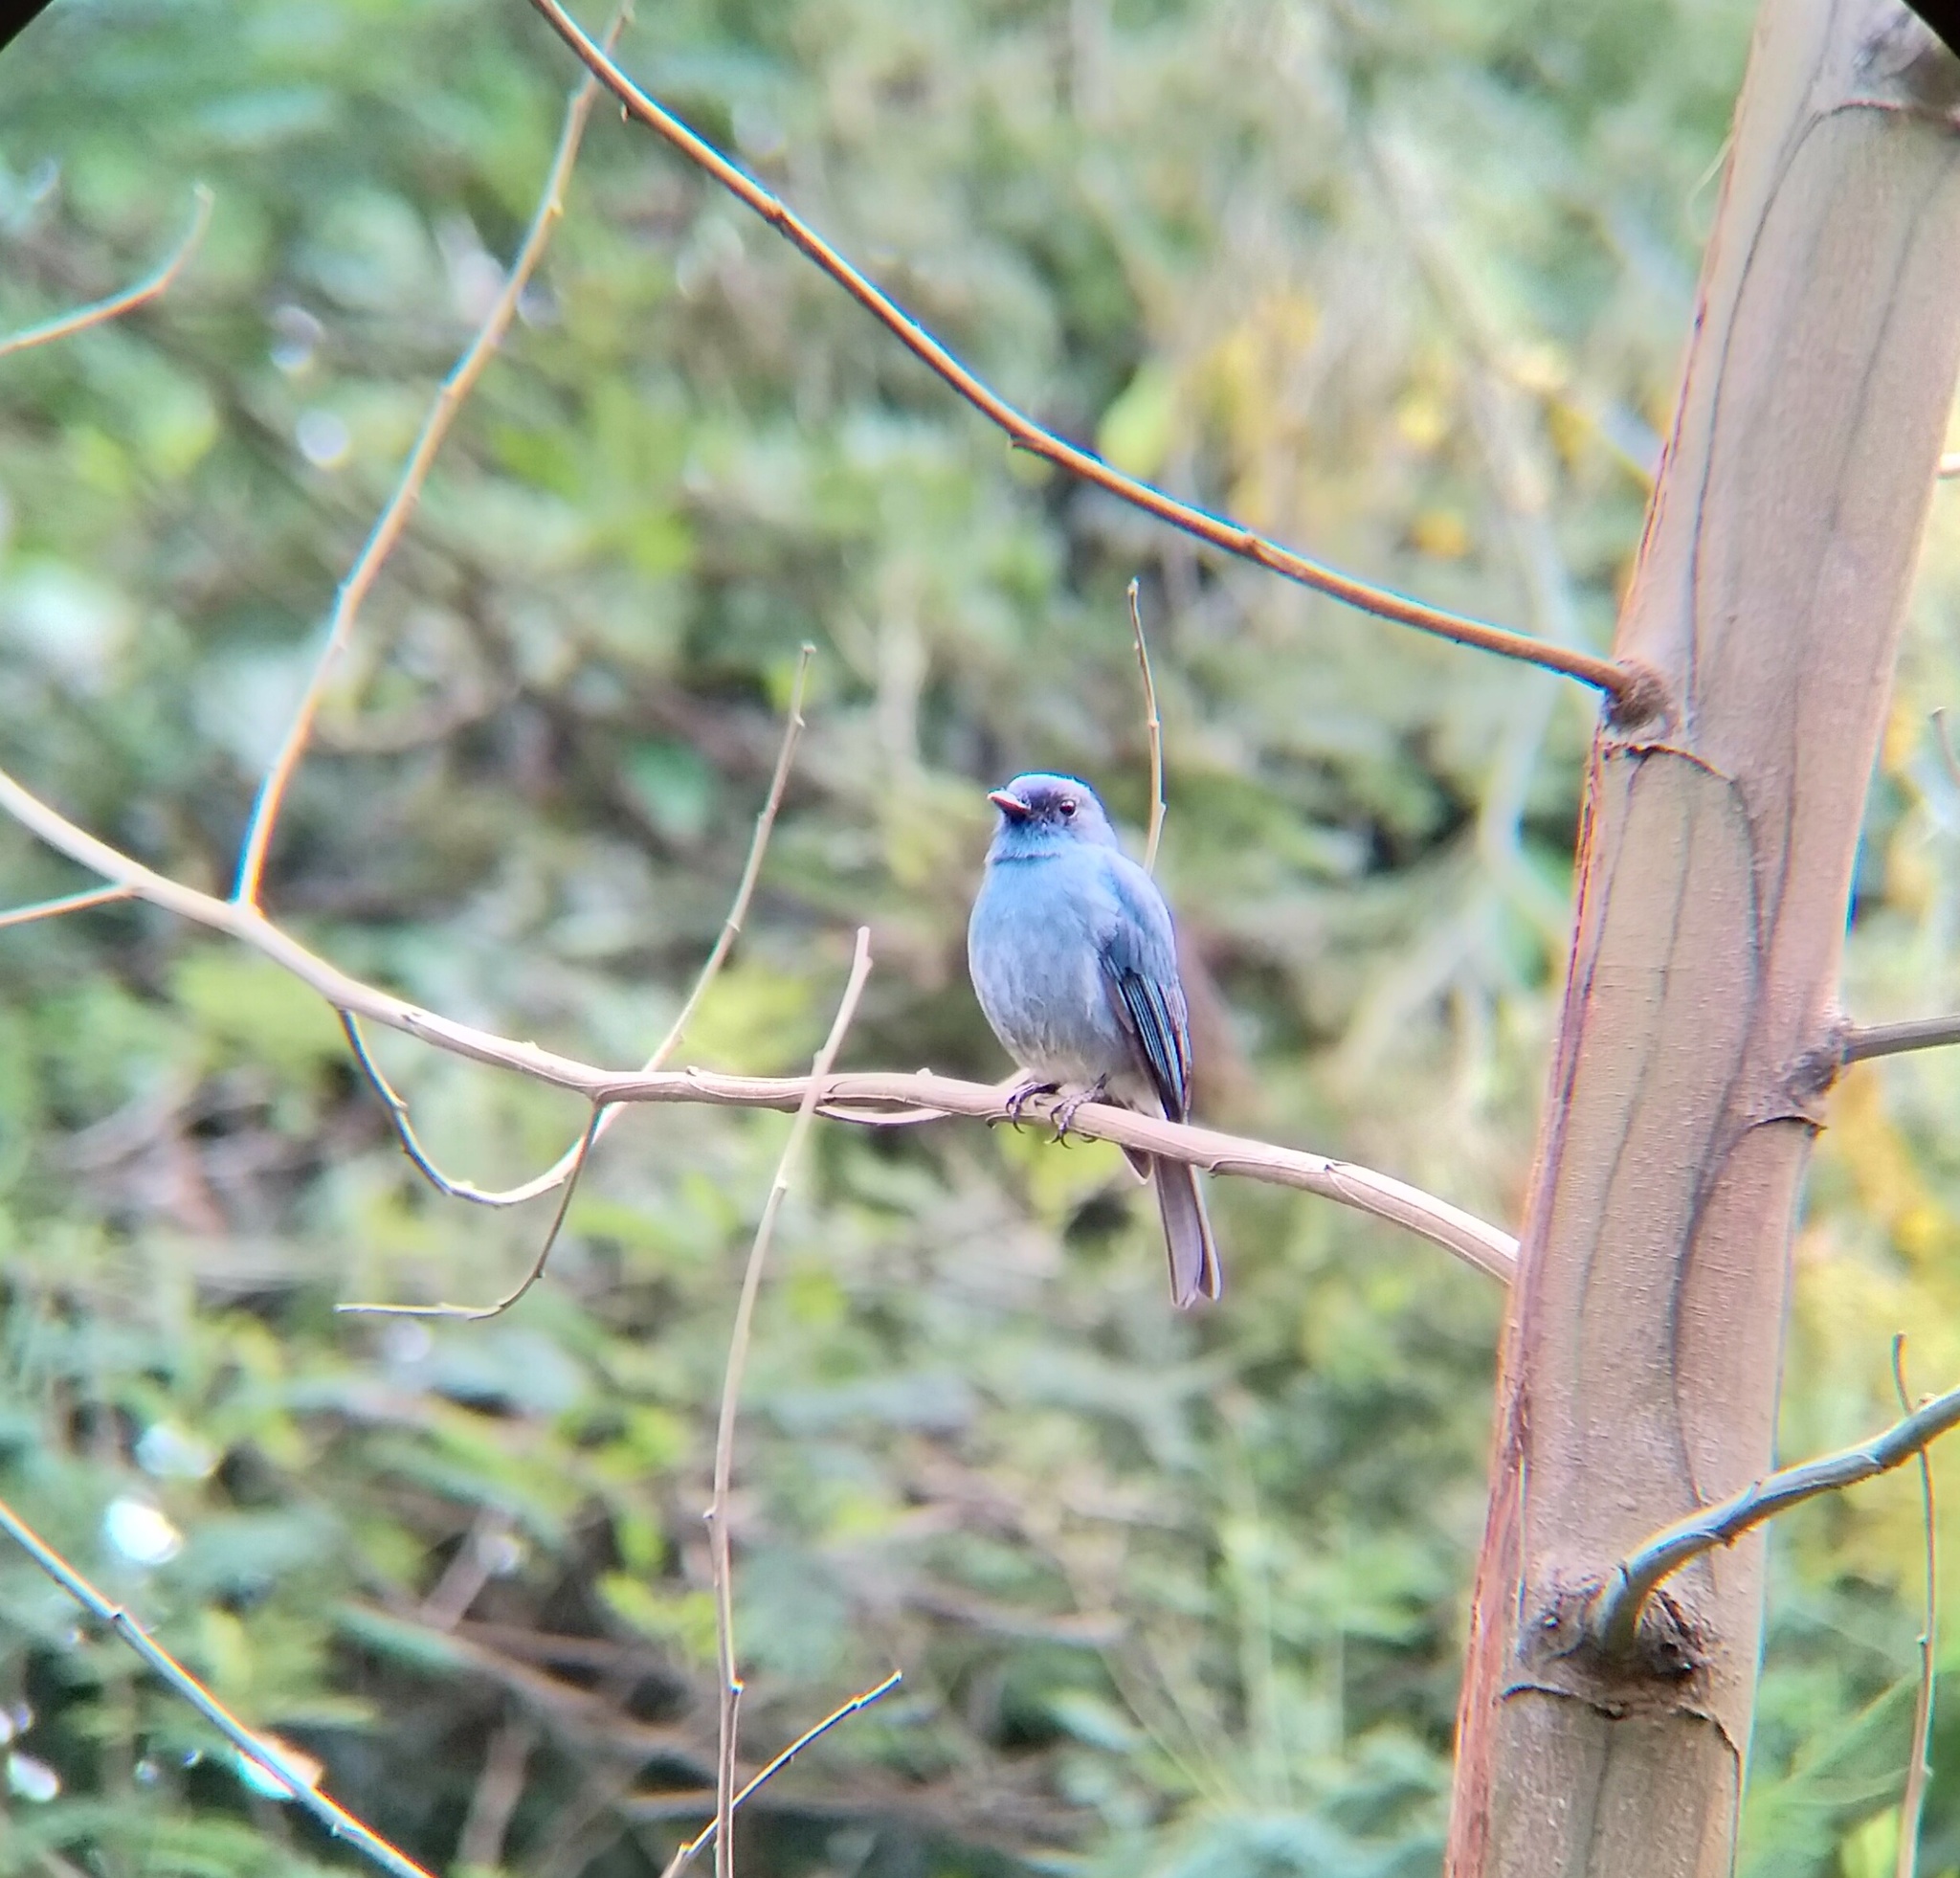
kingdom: Animalia
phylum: Chordata
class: Aves
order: Passeriformes
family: Muscicapidae
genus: Eumyias
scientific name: Eumyias albicaudatus
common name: Nilgiri flycatcher
